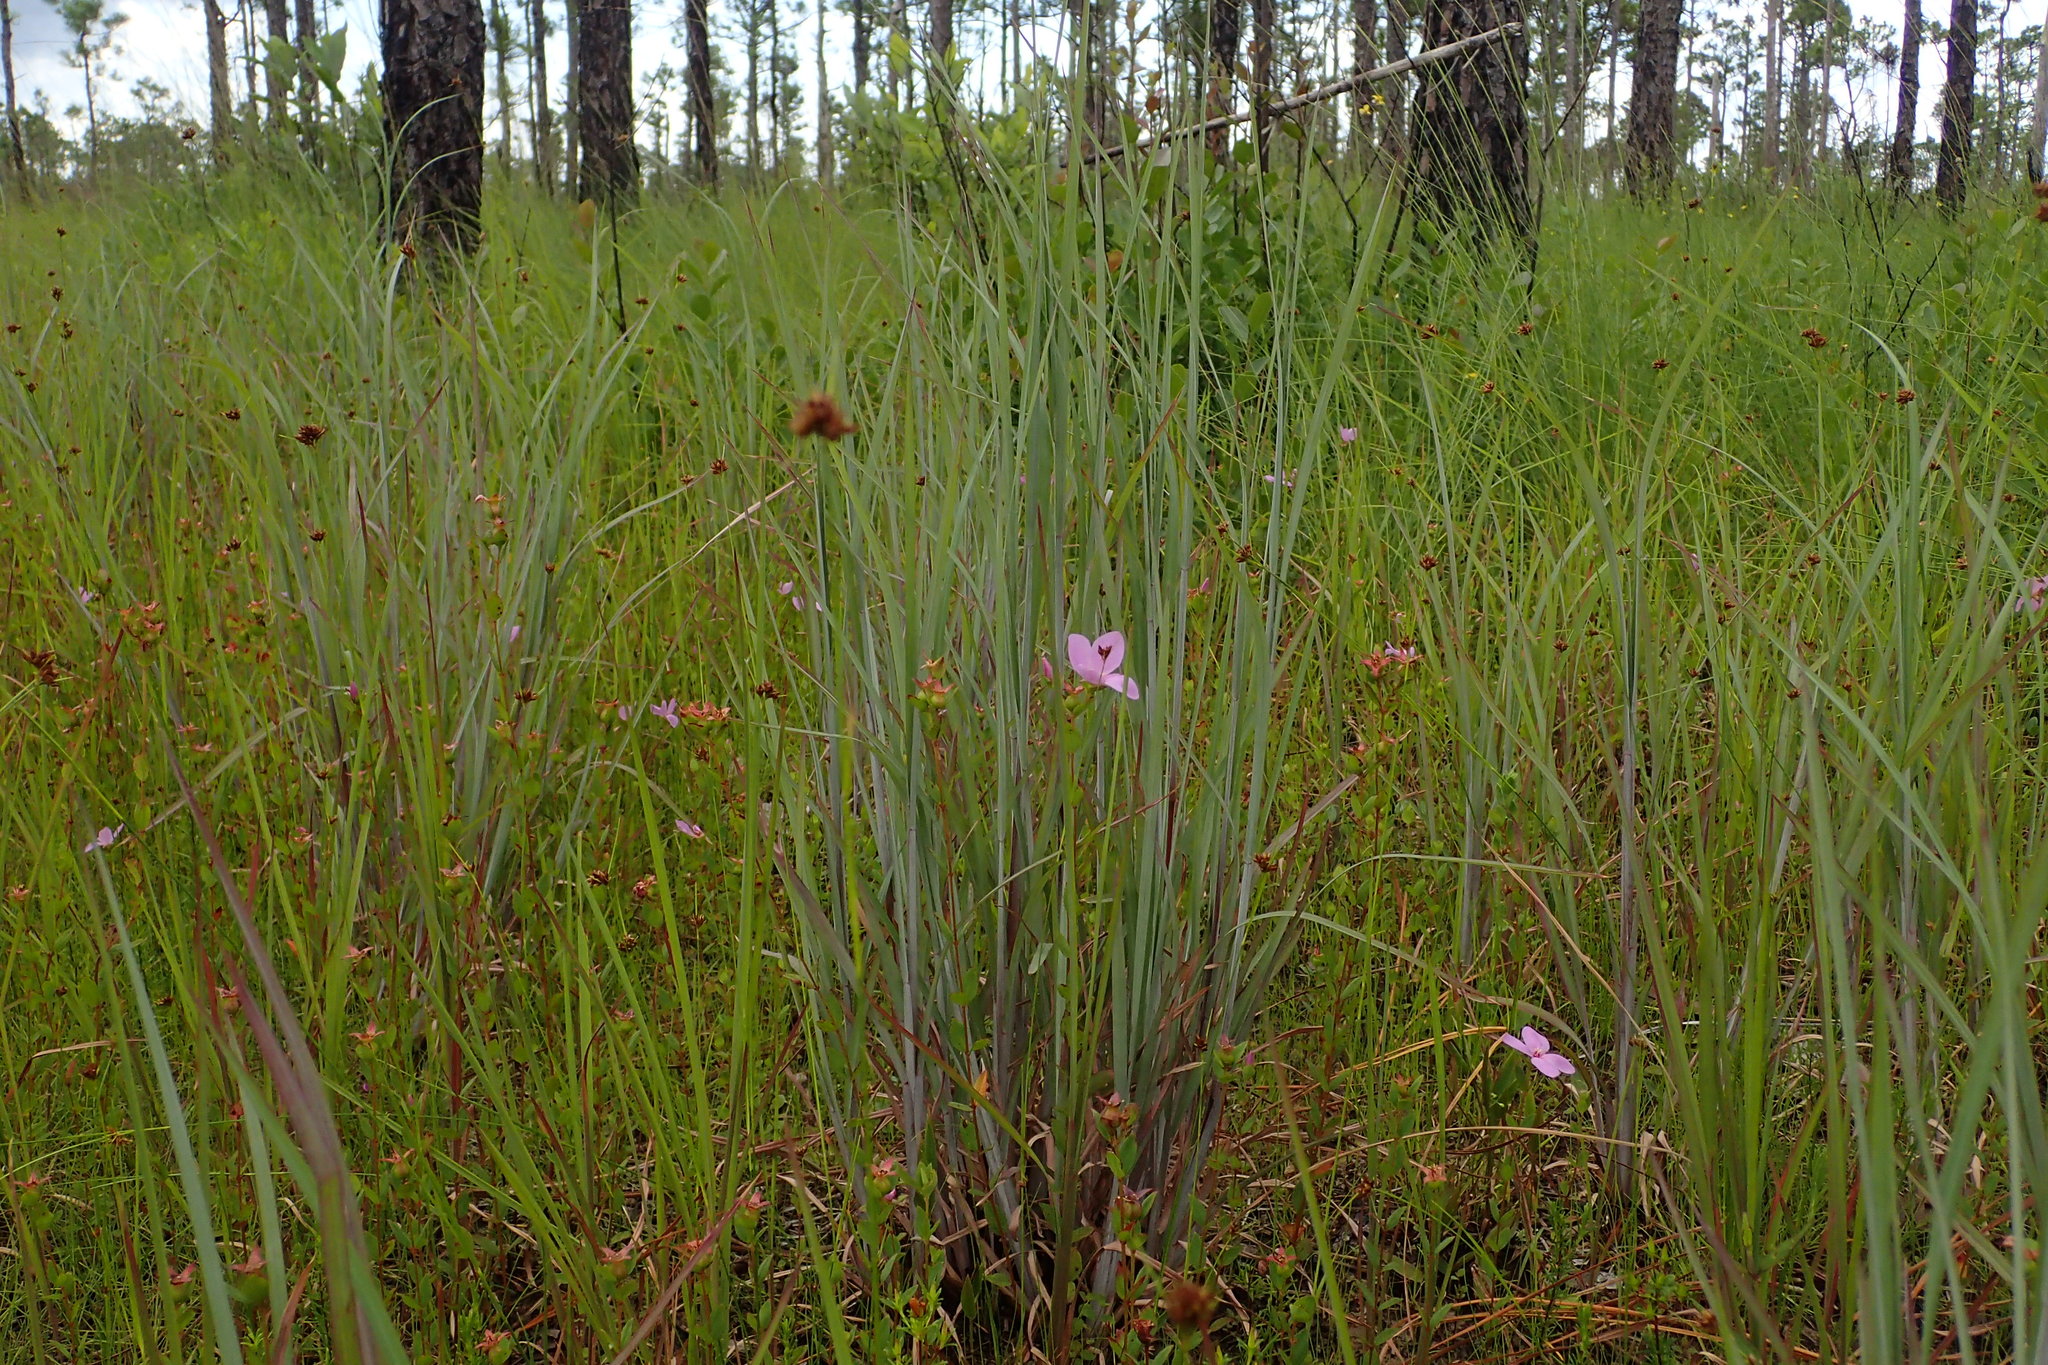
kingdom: Plantae
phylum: Tracheophyta
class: Magnoliopsida
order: Myrtales
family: Melastomataceae
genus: Rhexia
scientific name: Rhexia petiolata
